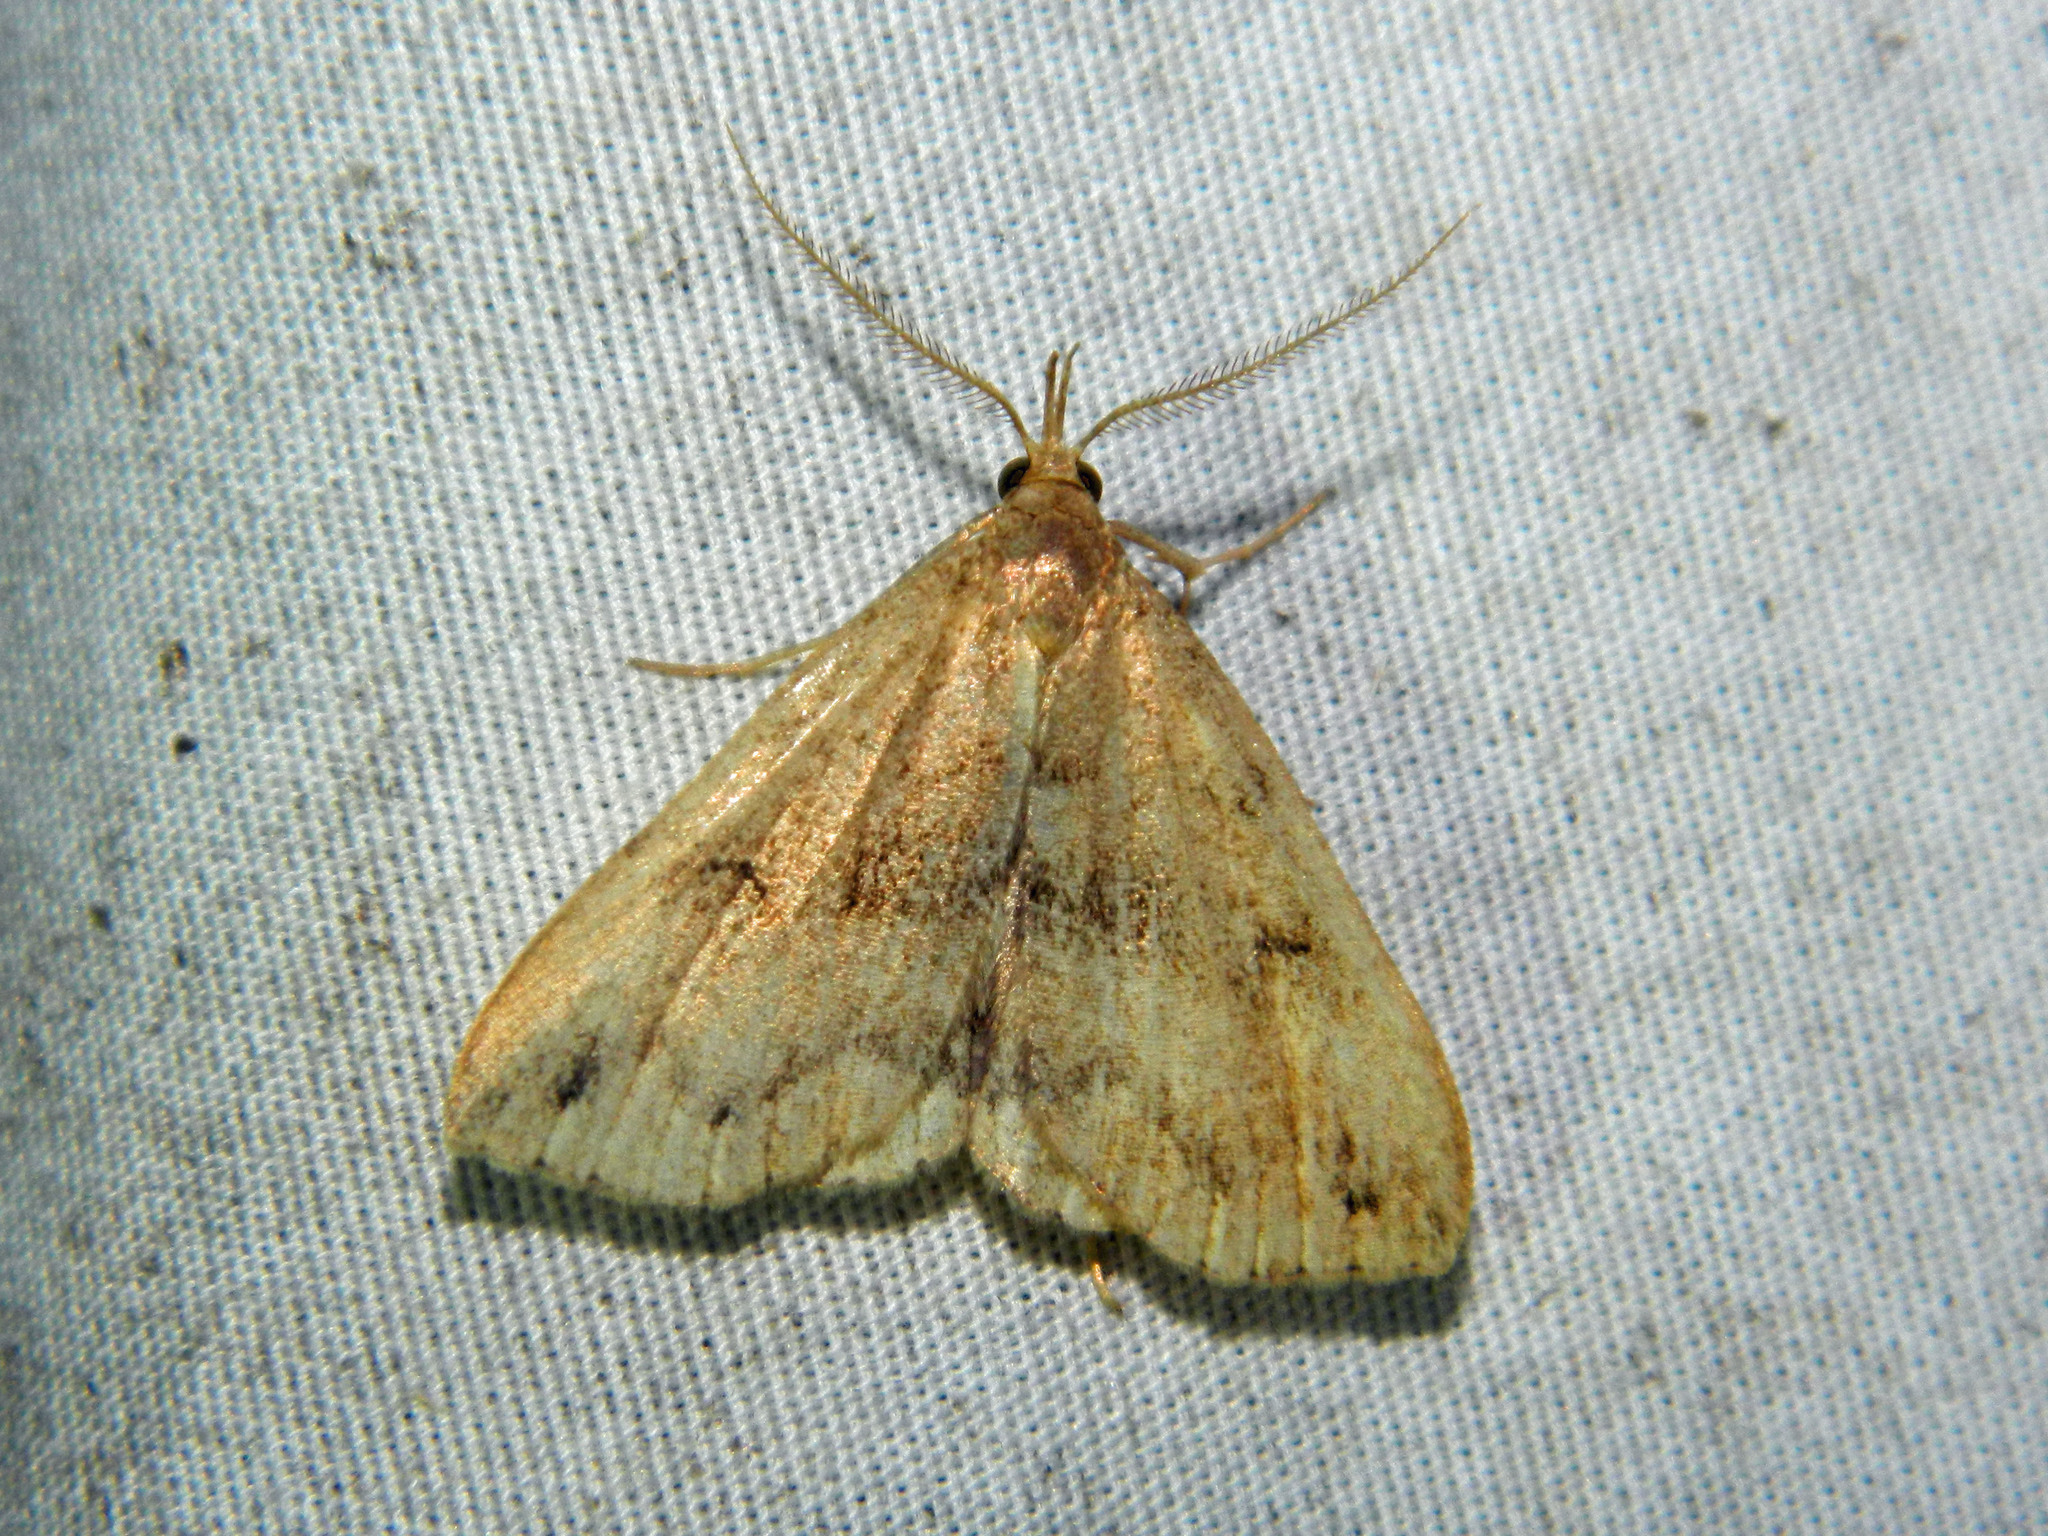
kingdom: Animalia
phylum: Arthropoda
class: Insecta
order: Lepidoptera
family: Erebidae
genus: Phalaenostola
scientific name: Phalaenostola eumelusalis
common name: Dark phalaenostola moth
